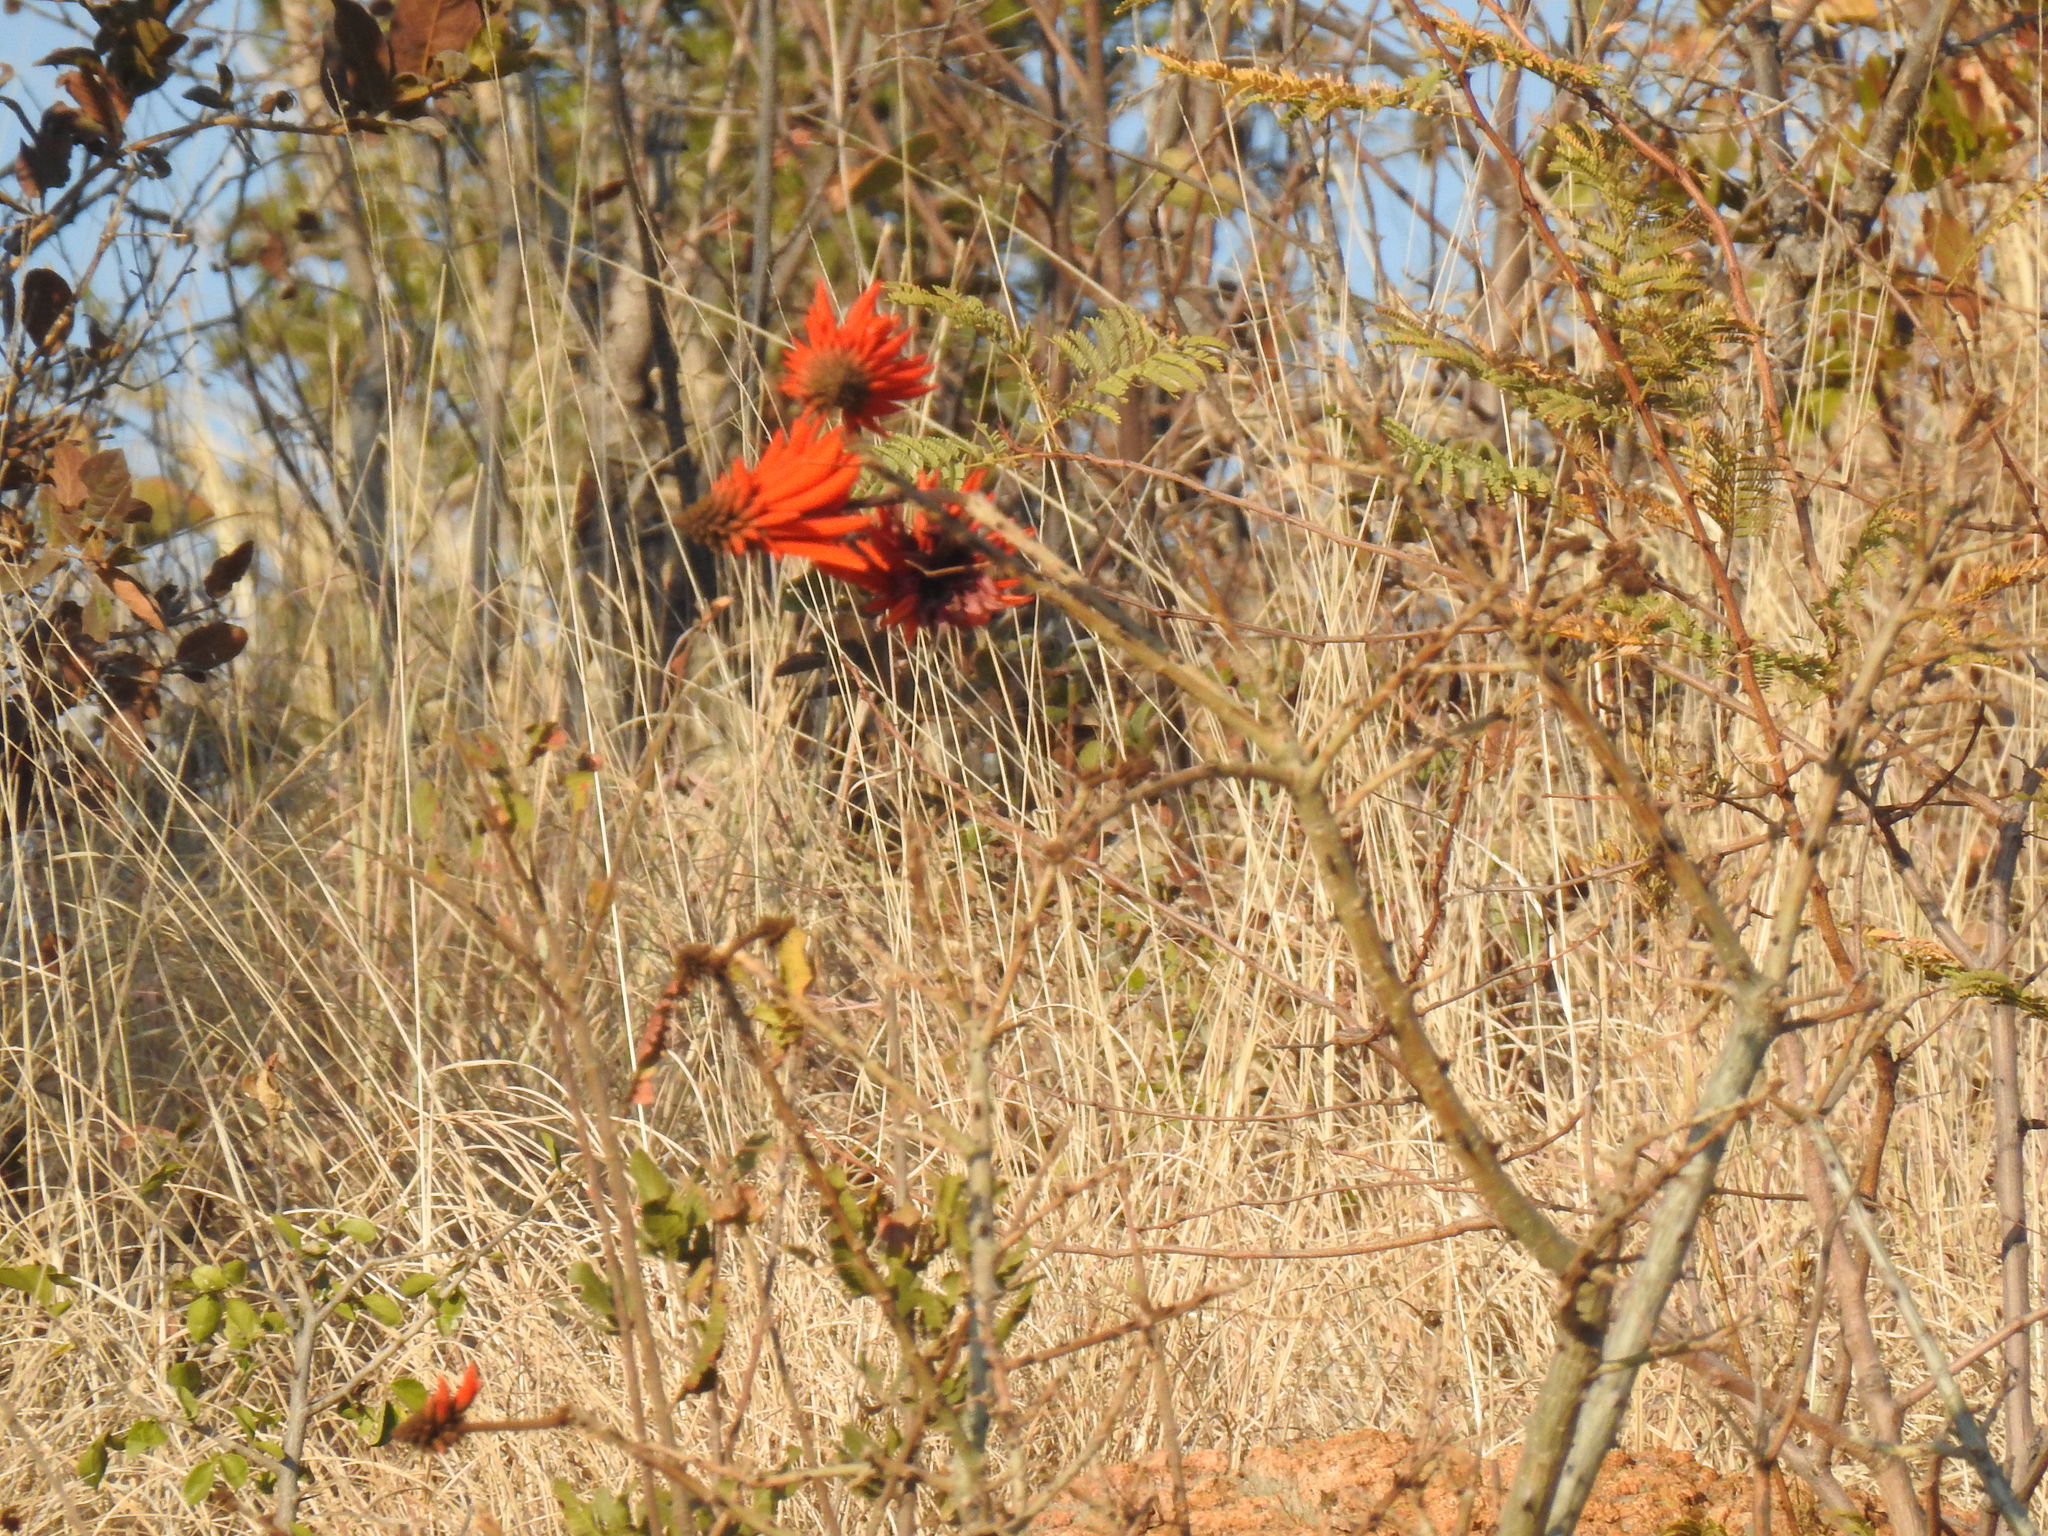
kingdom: Plantae
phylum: Tracheophyta
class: Magnoliopsida
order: Fabales
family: Fabaceae
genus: Erythrina
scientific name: Erythrina lysistemon
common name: Common coral tree
